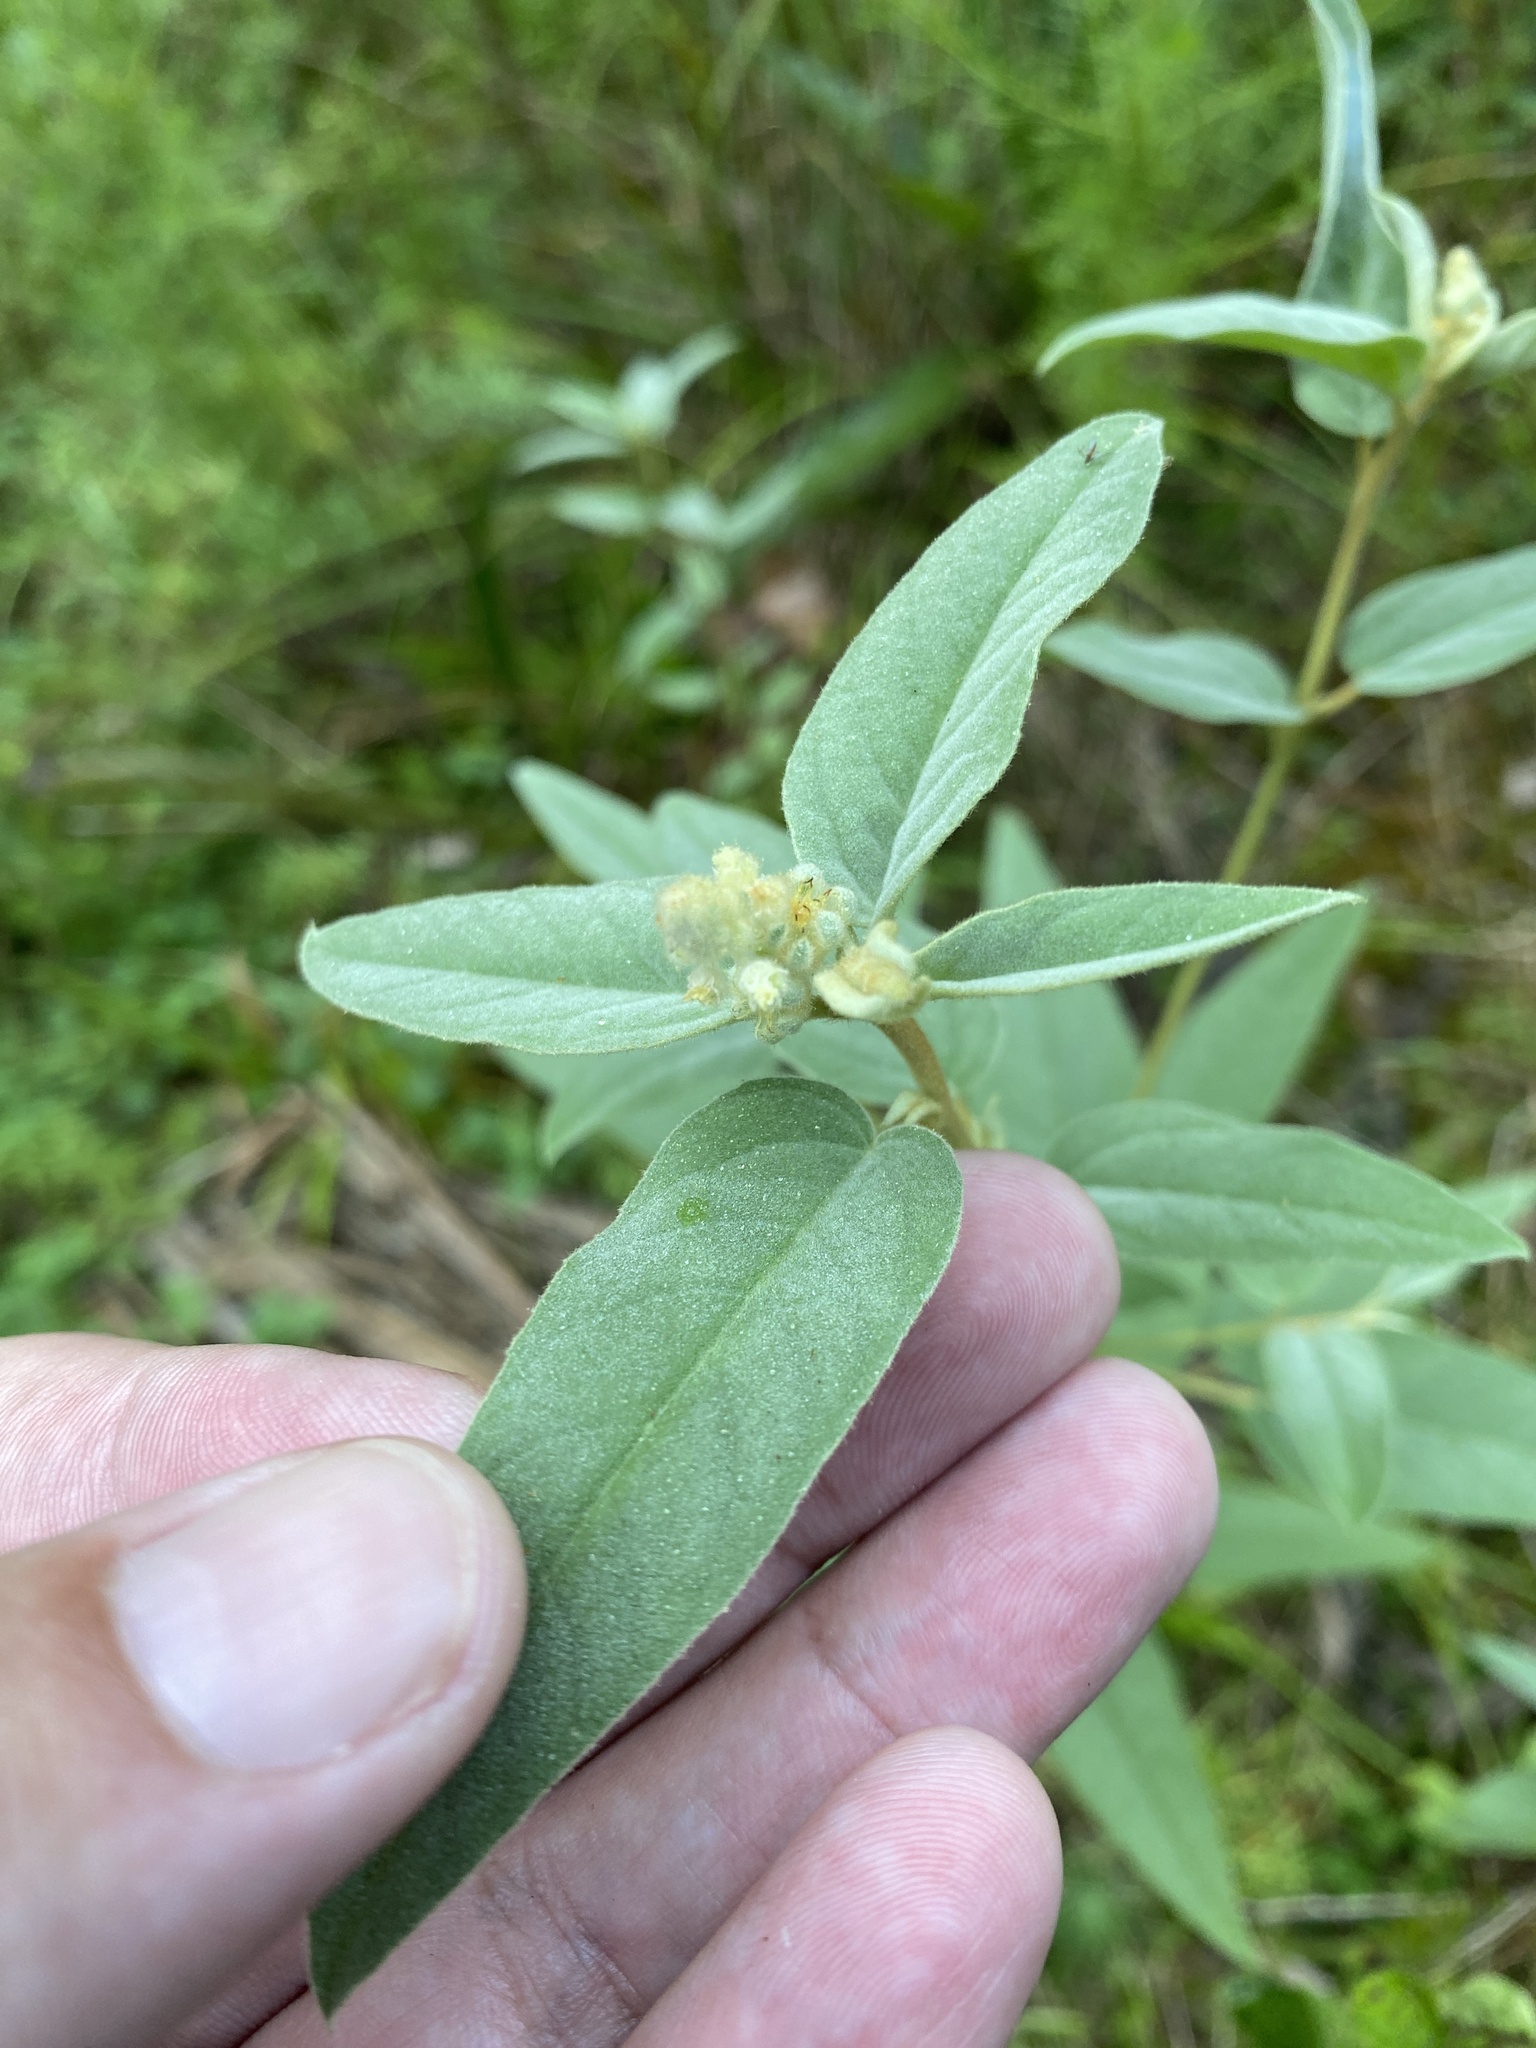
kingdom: Plantae
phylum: Tracheophyta
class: Magnoliopsida
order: Malpighiales
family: Euphorbiaceae
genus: Croton
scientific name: Croton lindheimeri
